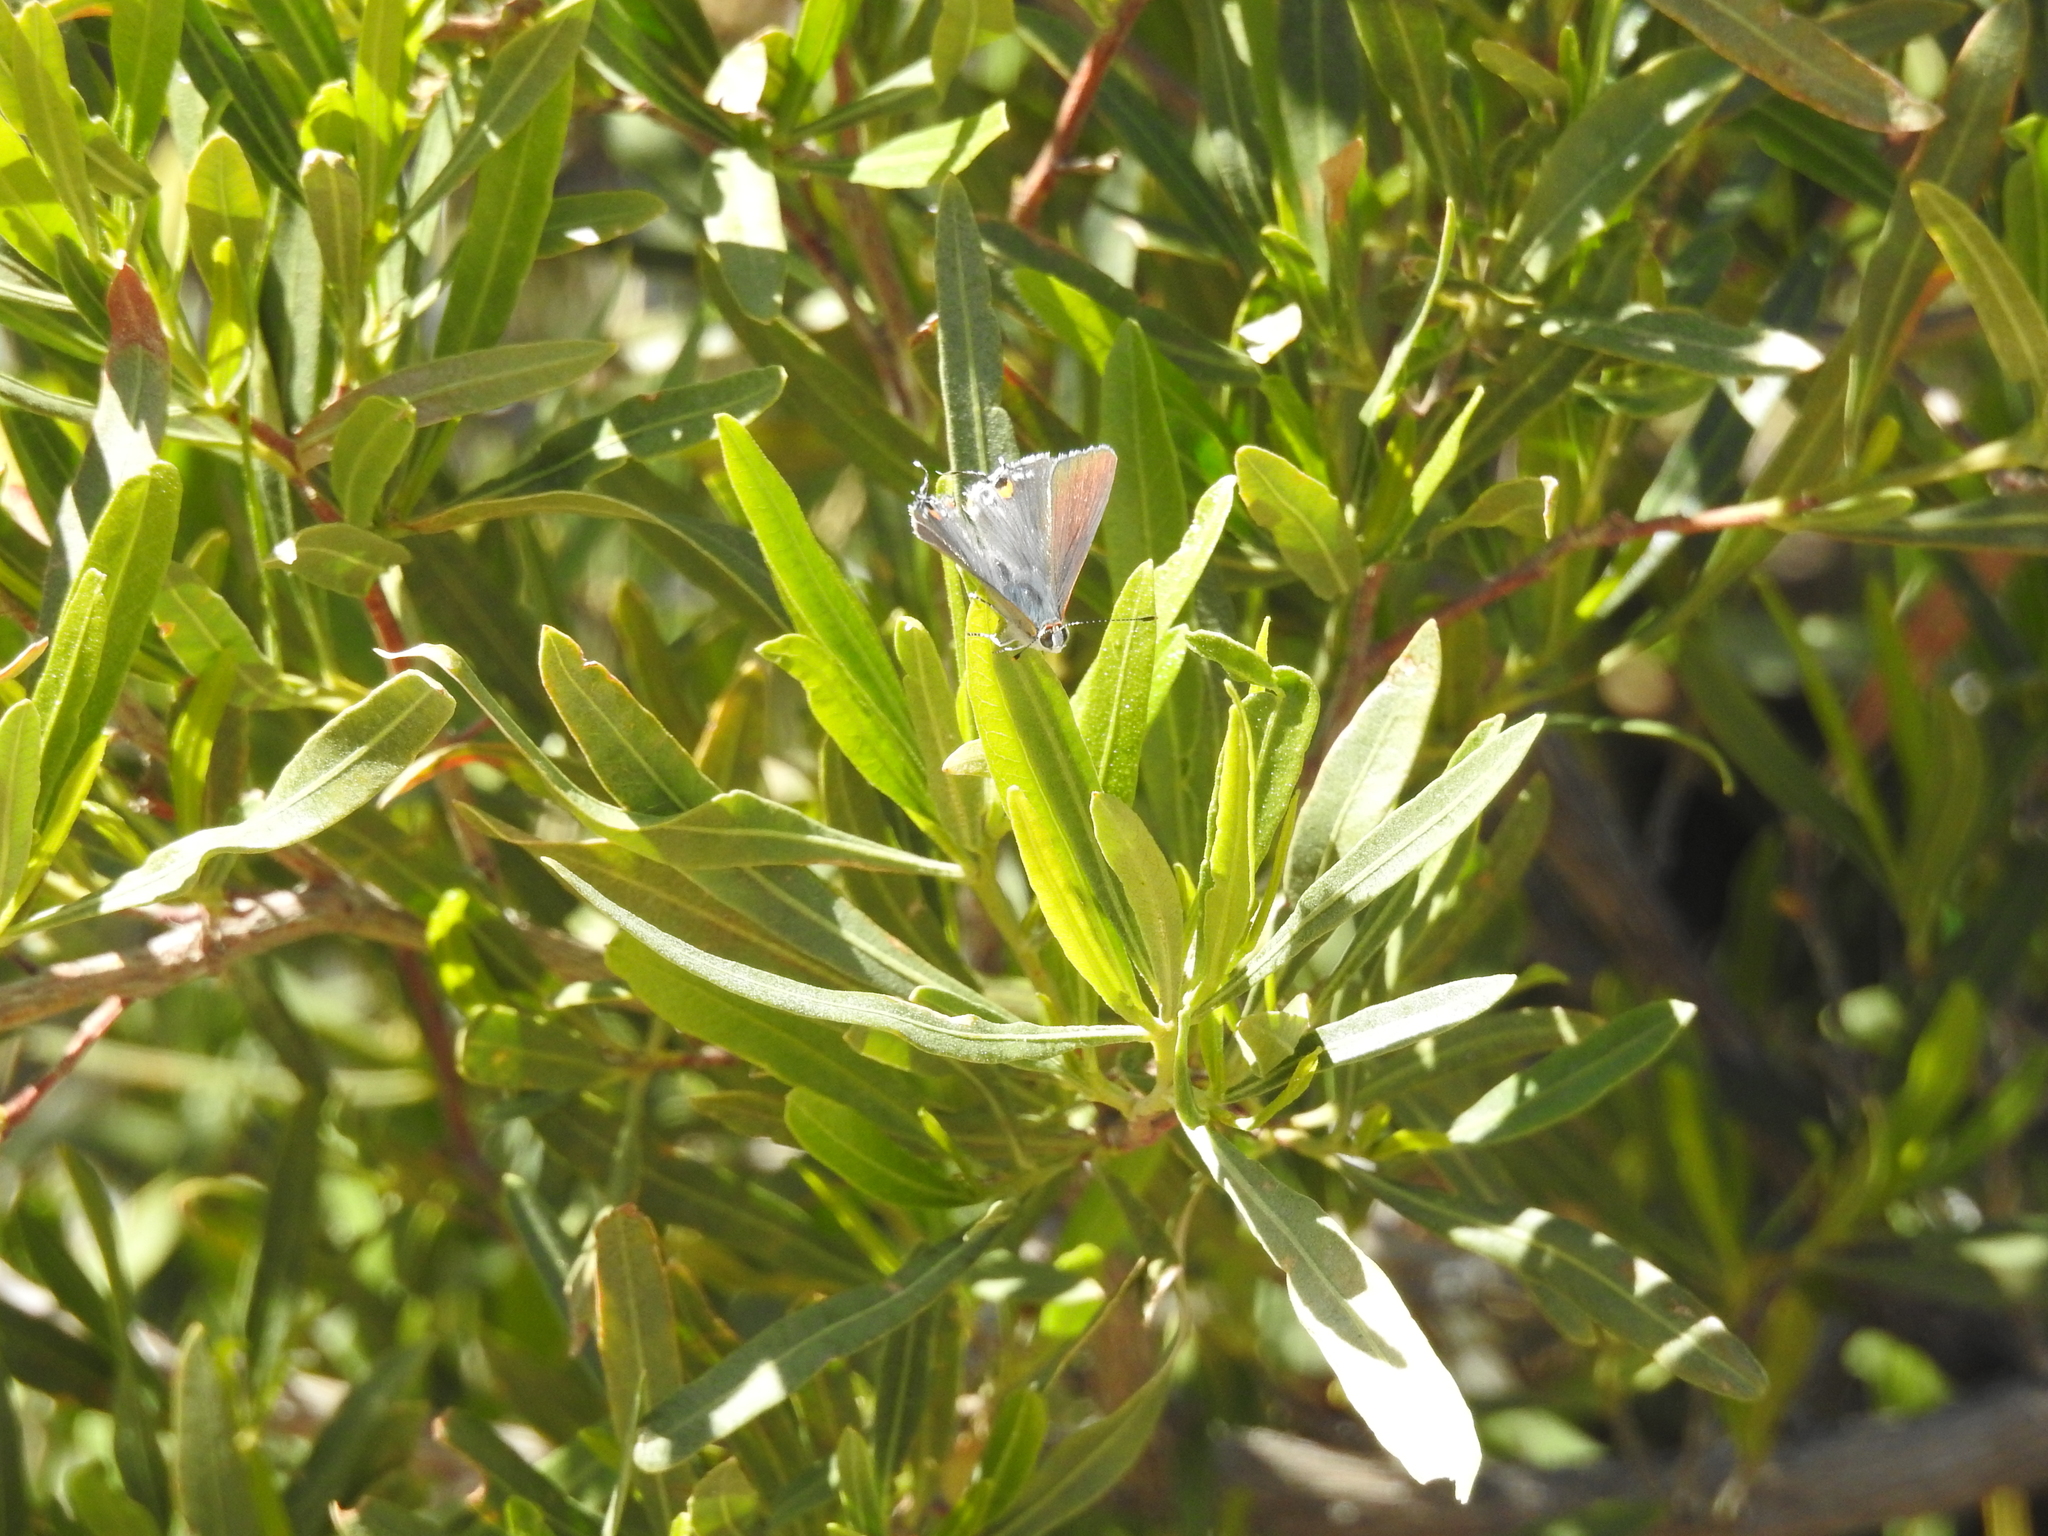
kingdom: Animalia
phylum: Arthropoda
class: Insecta
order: Lepidoptera
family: Lycaenidae
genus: Strymon
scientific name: Strymon melinus
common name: Gray hairstreak
